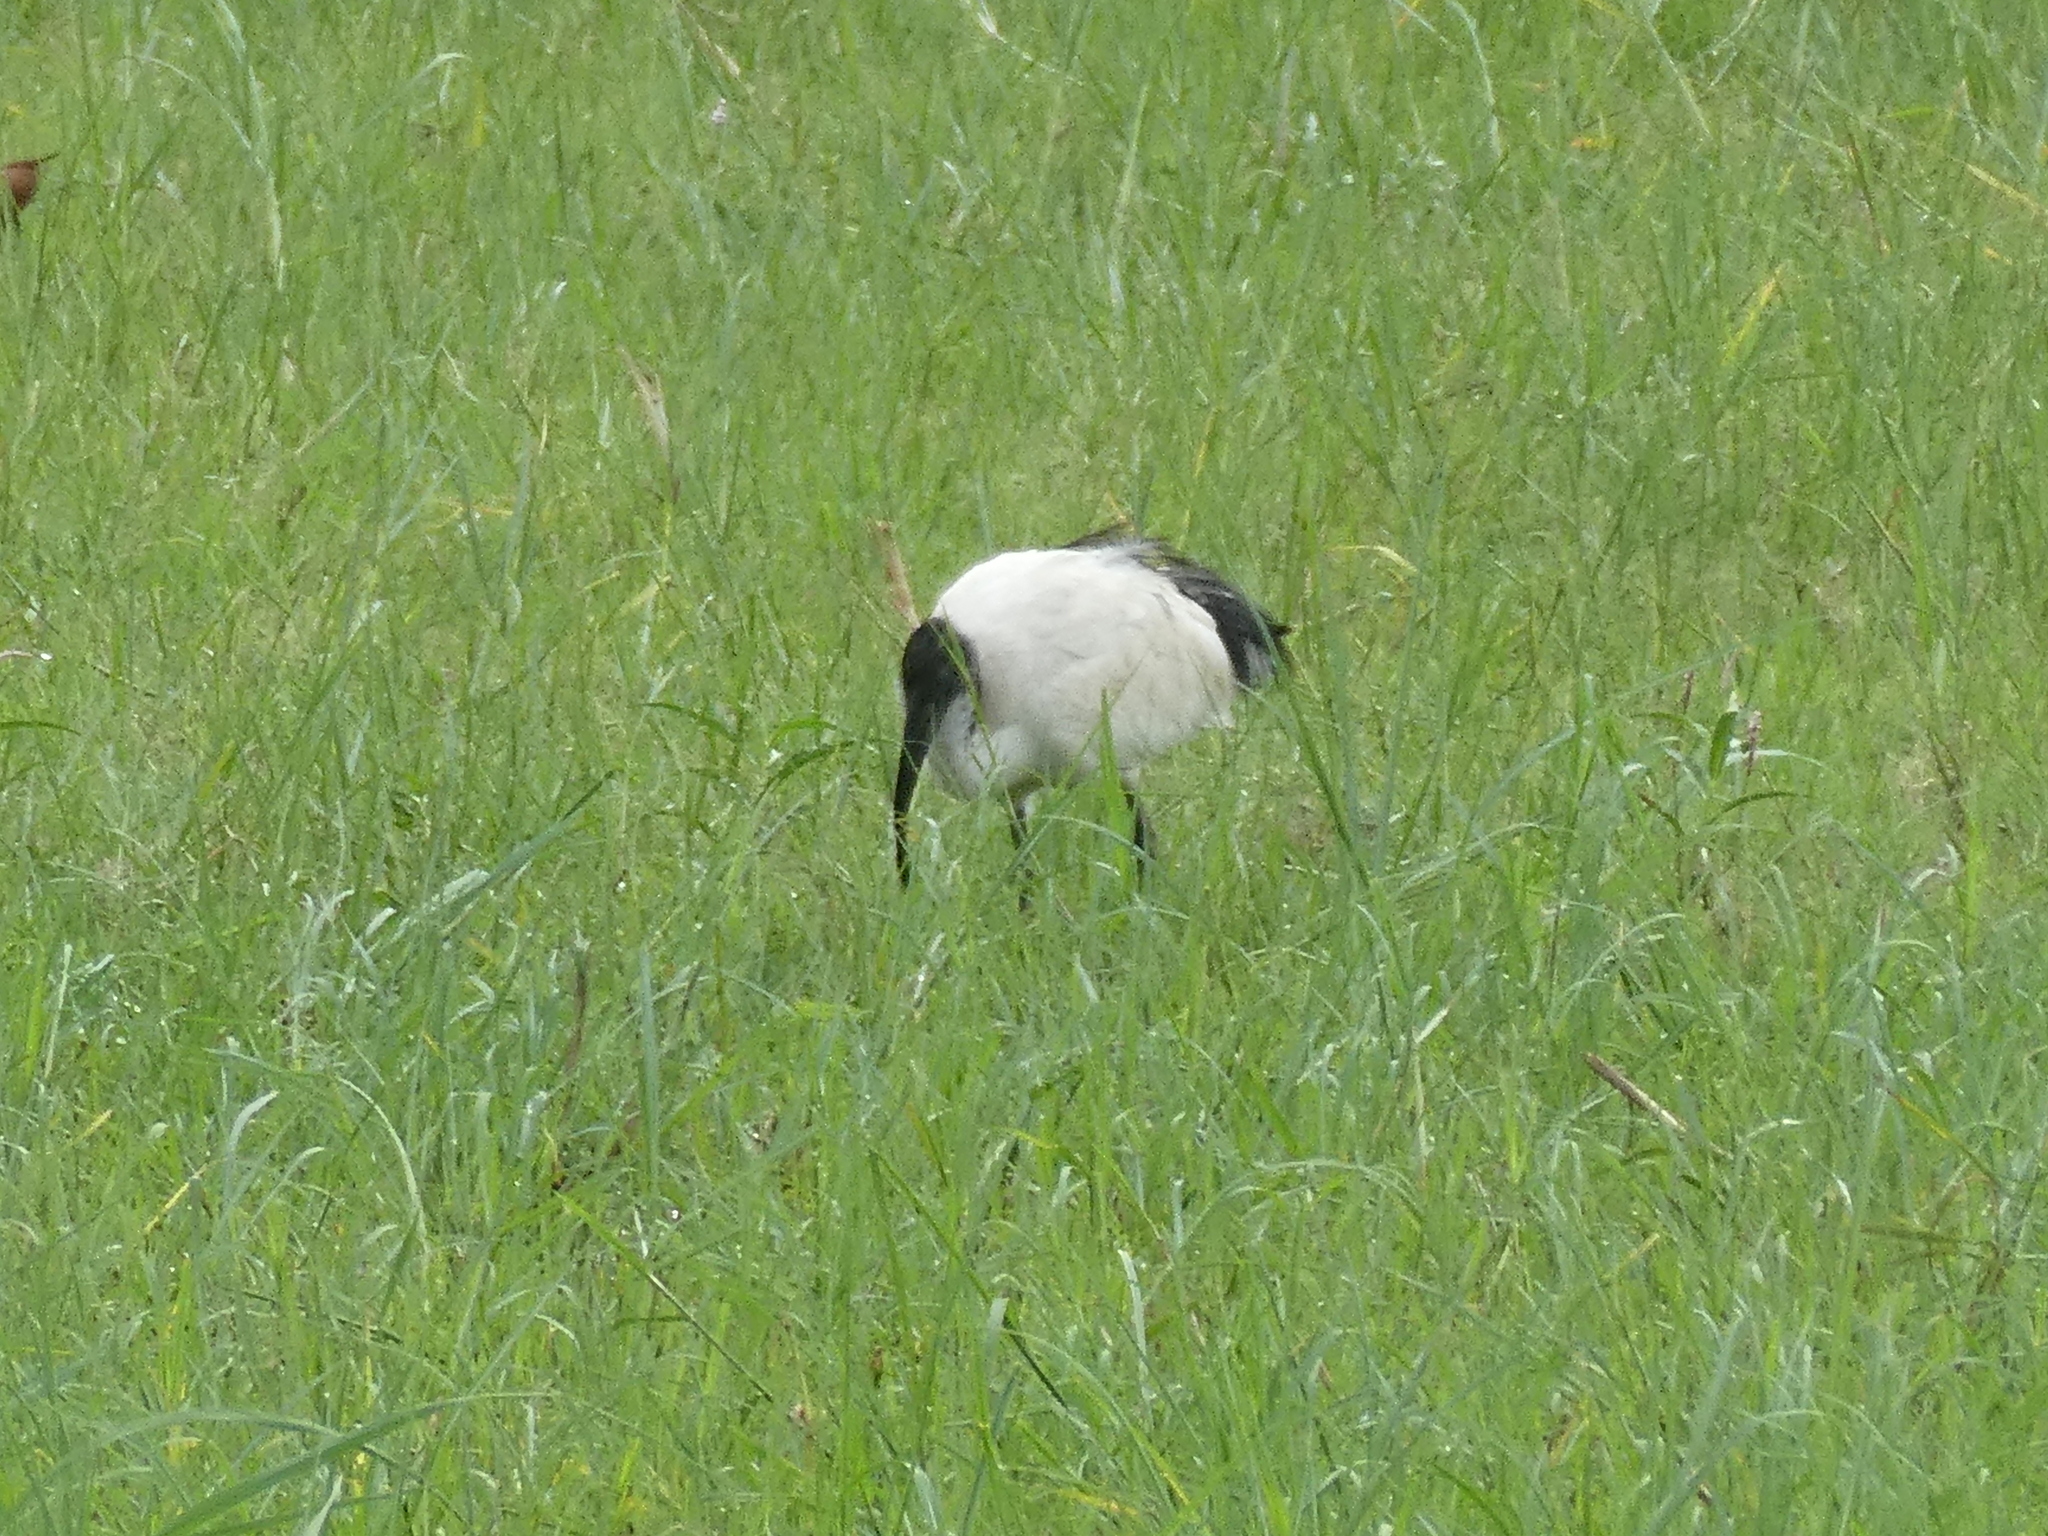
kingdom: Animalia
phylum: Chordata
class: Aves
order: Pelecaniformes
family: Threskiornithidae
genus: Threskiornis
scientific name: Threskiornis aethiopicus
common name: Sacred ibis
